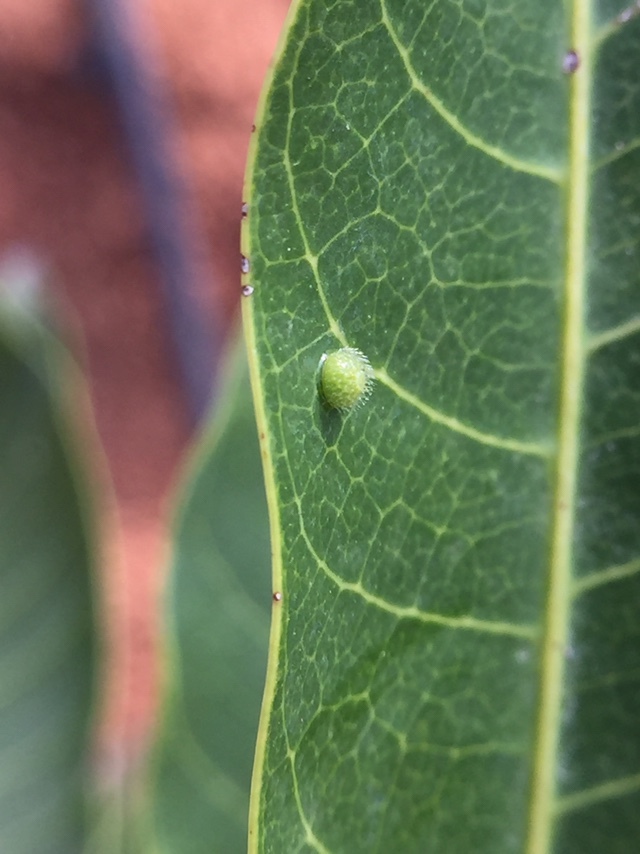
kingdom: Animalia
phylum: Arthropoda
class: Insecta
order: Lepidoptera
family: Nymphalidae
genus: Euthalia
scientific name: Euthalia aconthea
